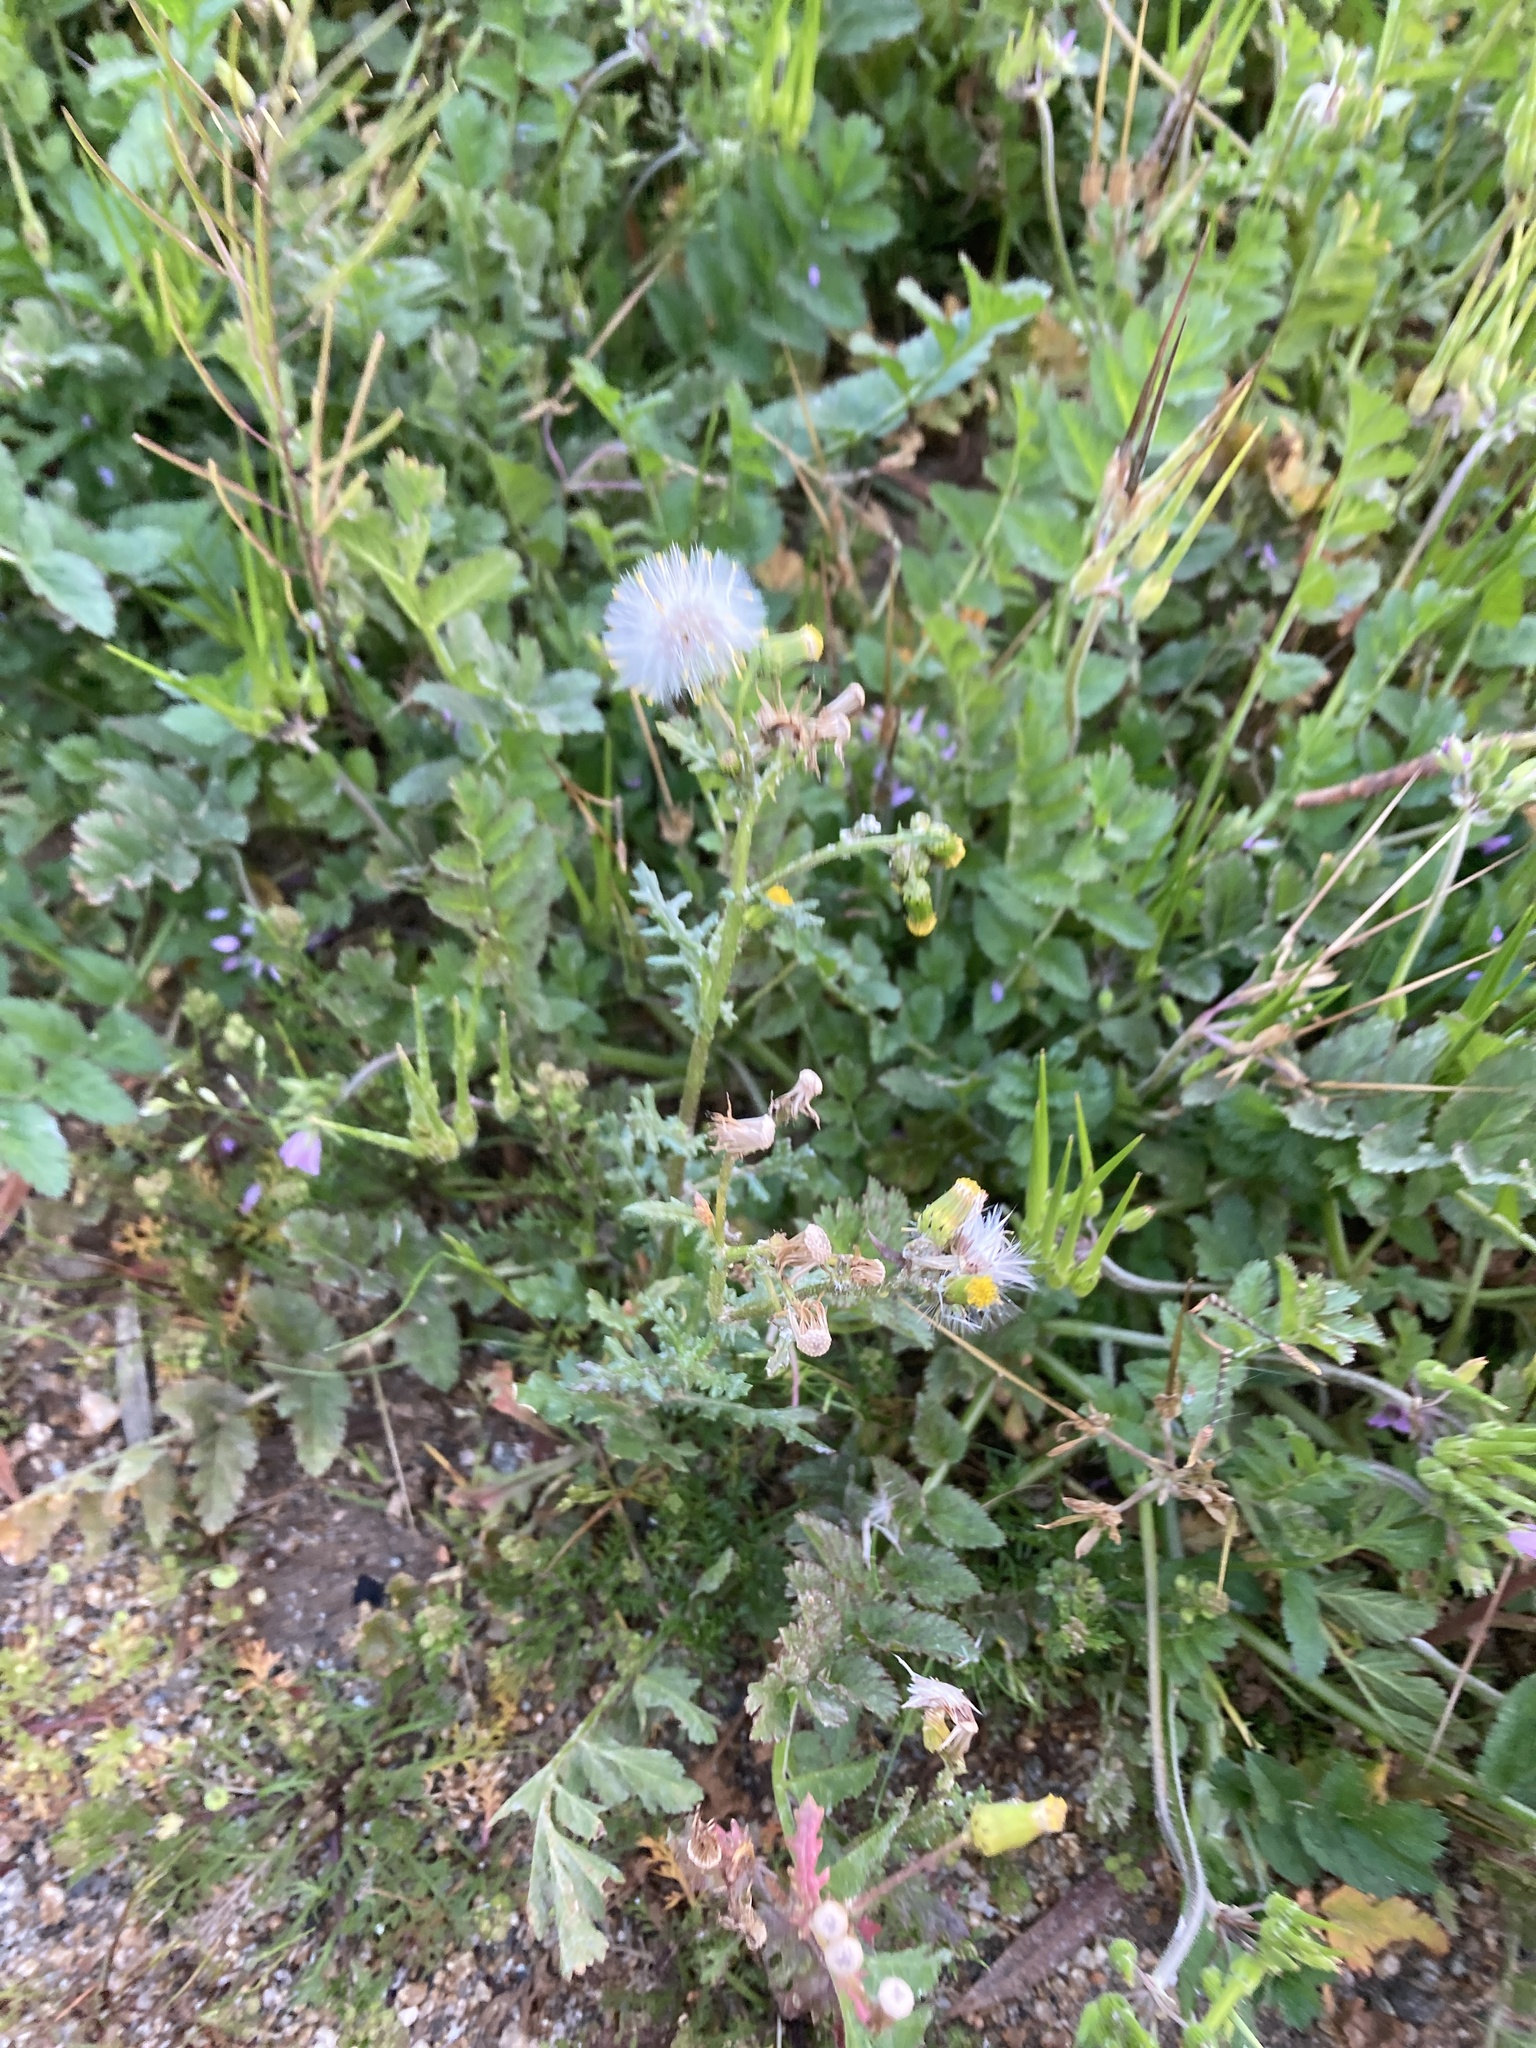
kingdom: Plantae
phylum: Tracheophyta
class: Magnoliopsida
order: Asterales
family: Asteraceae
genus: Senecio
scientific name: Senecio vulgaris
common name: Old-man-in-the-spring
